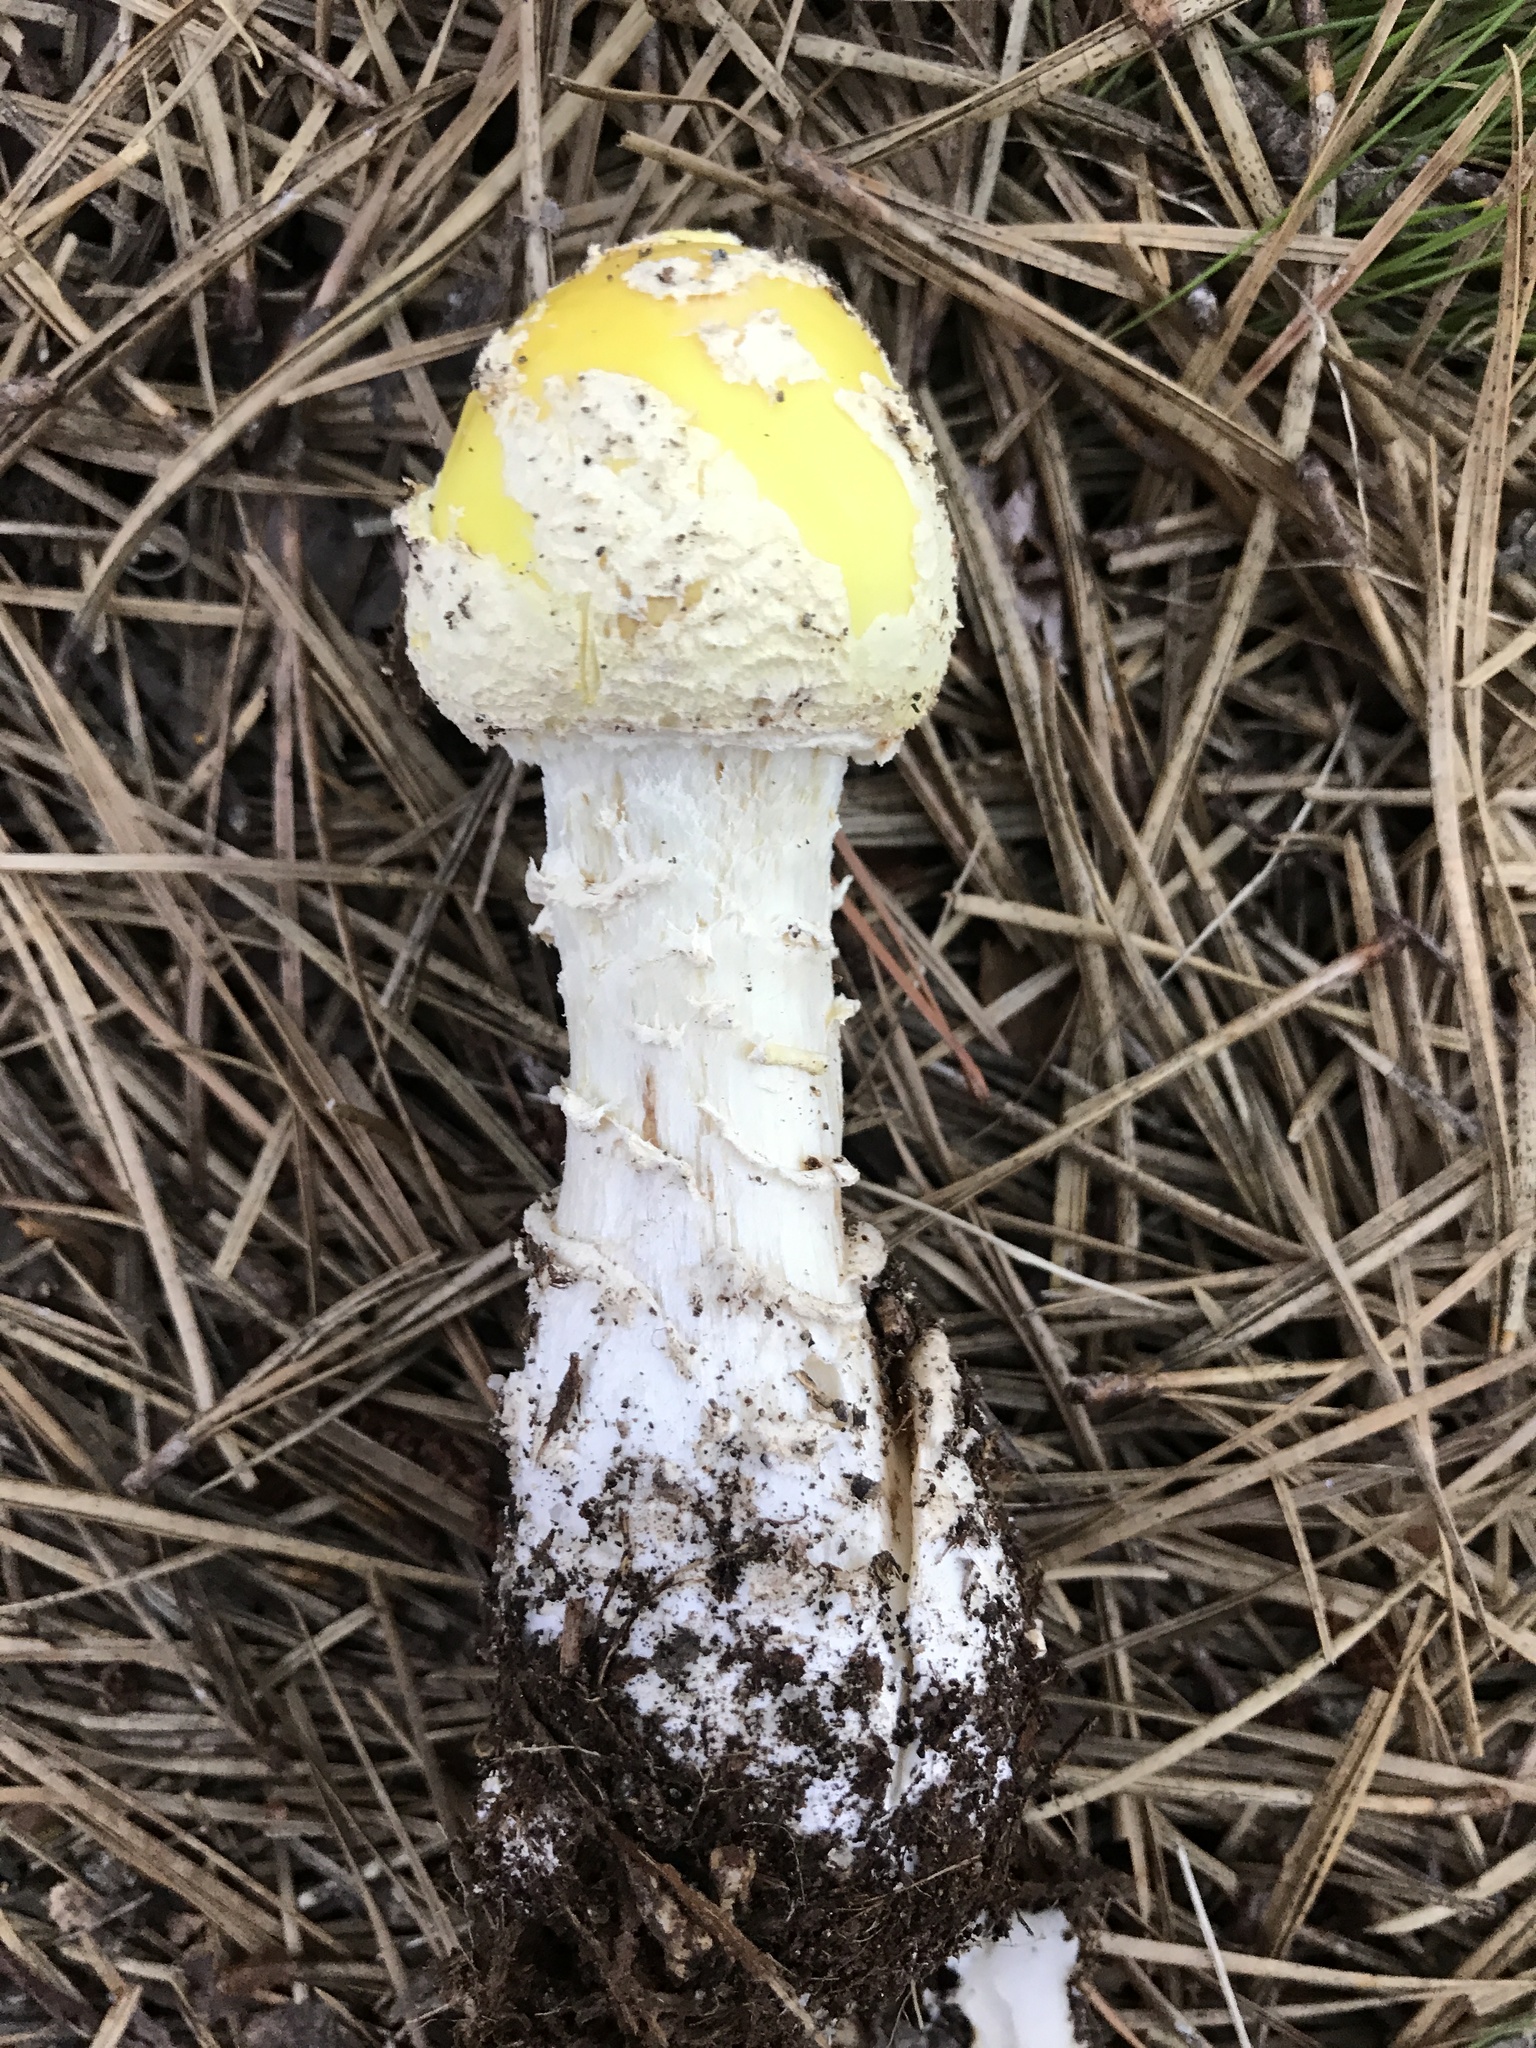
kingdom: Fungi
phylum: Basidiomycota
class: Agaricomycetes
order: Agaricales
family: Amanitaceae
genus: Amanita
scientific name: Amanita muscaria
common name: Fly agaric
